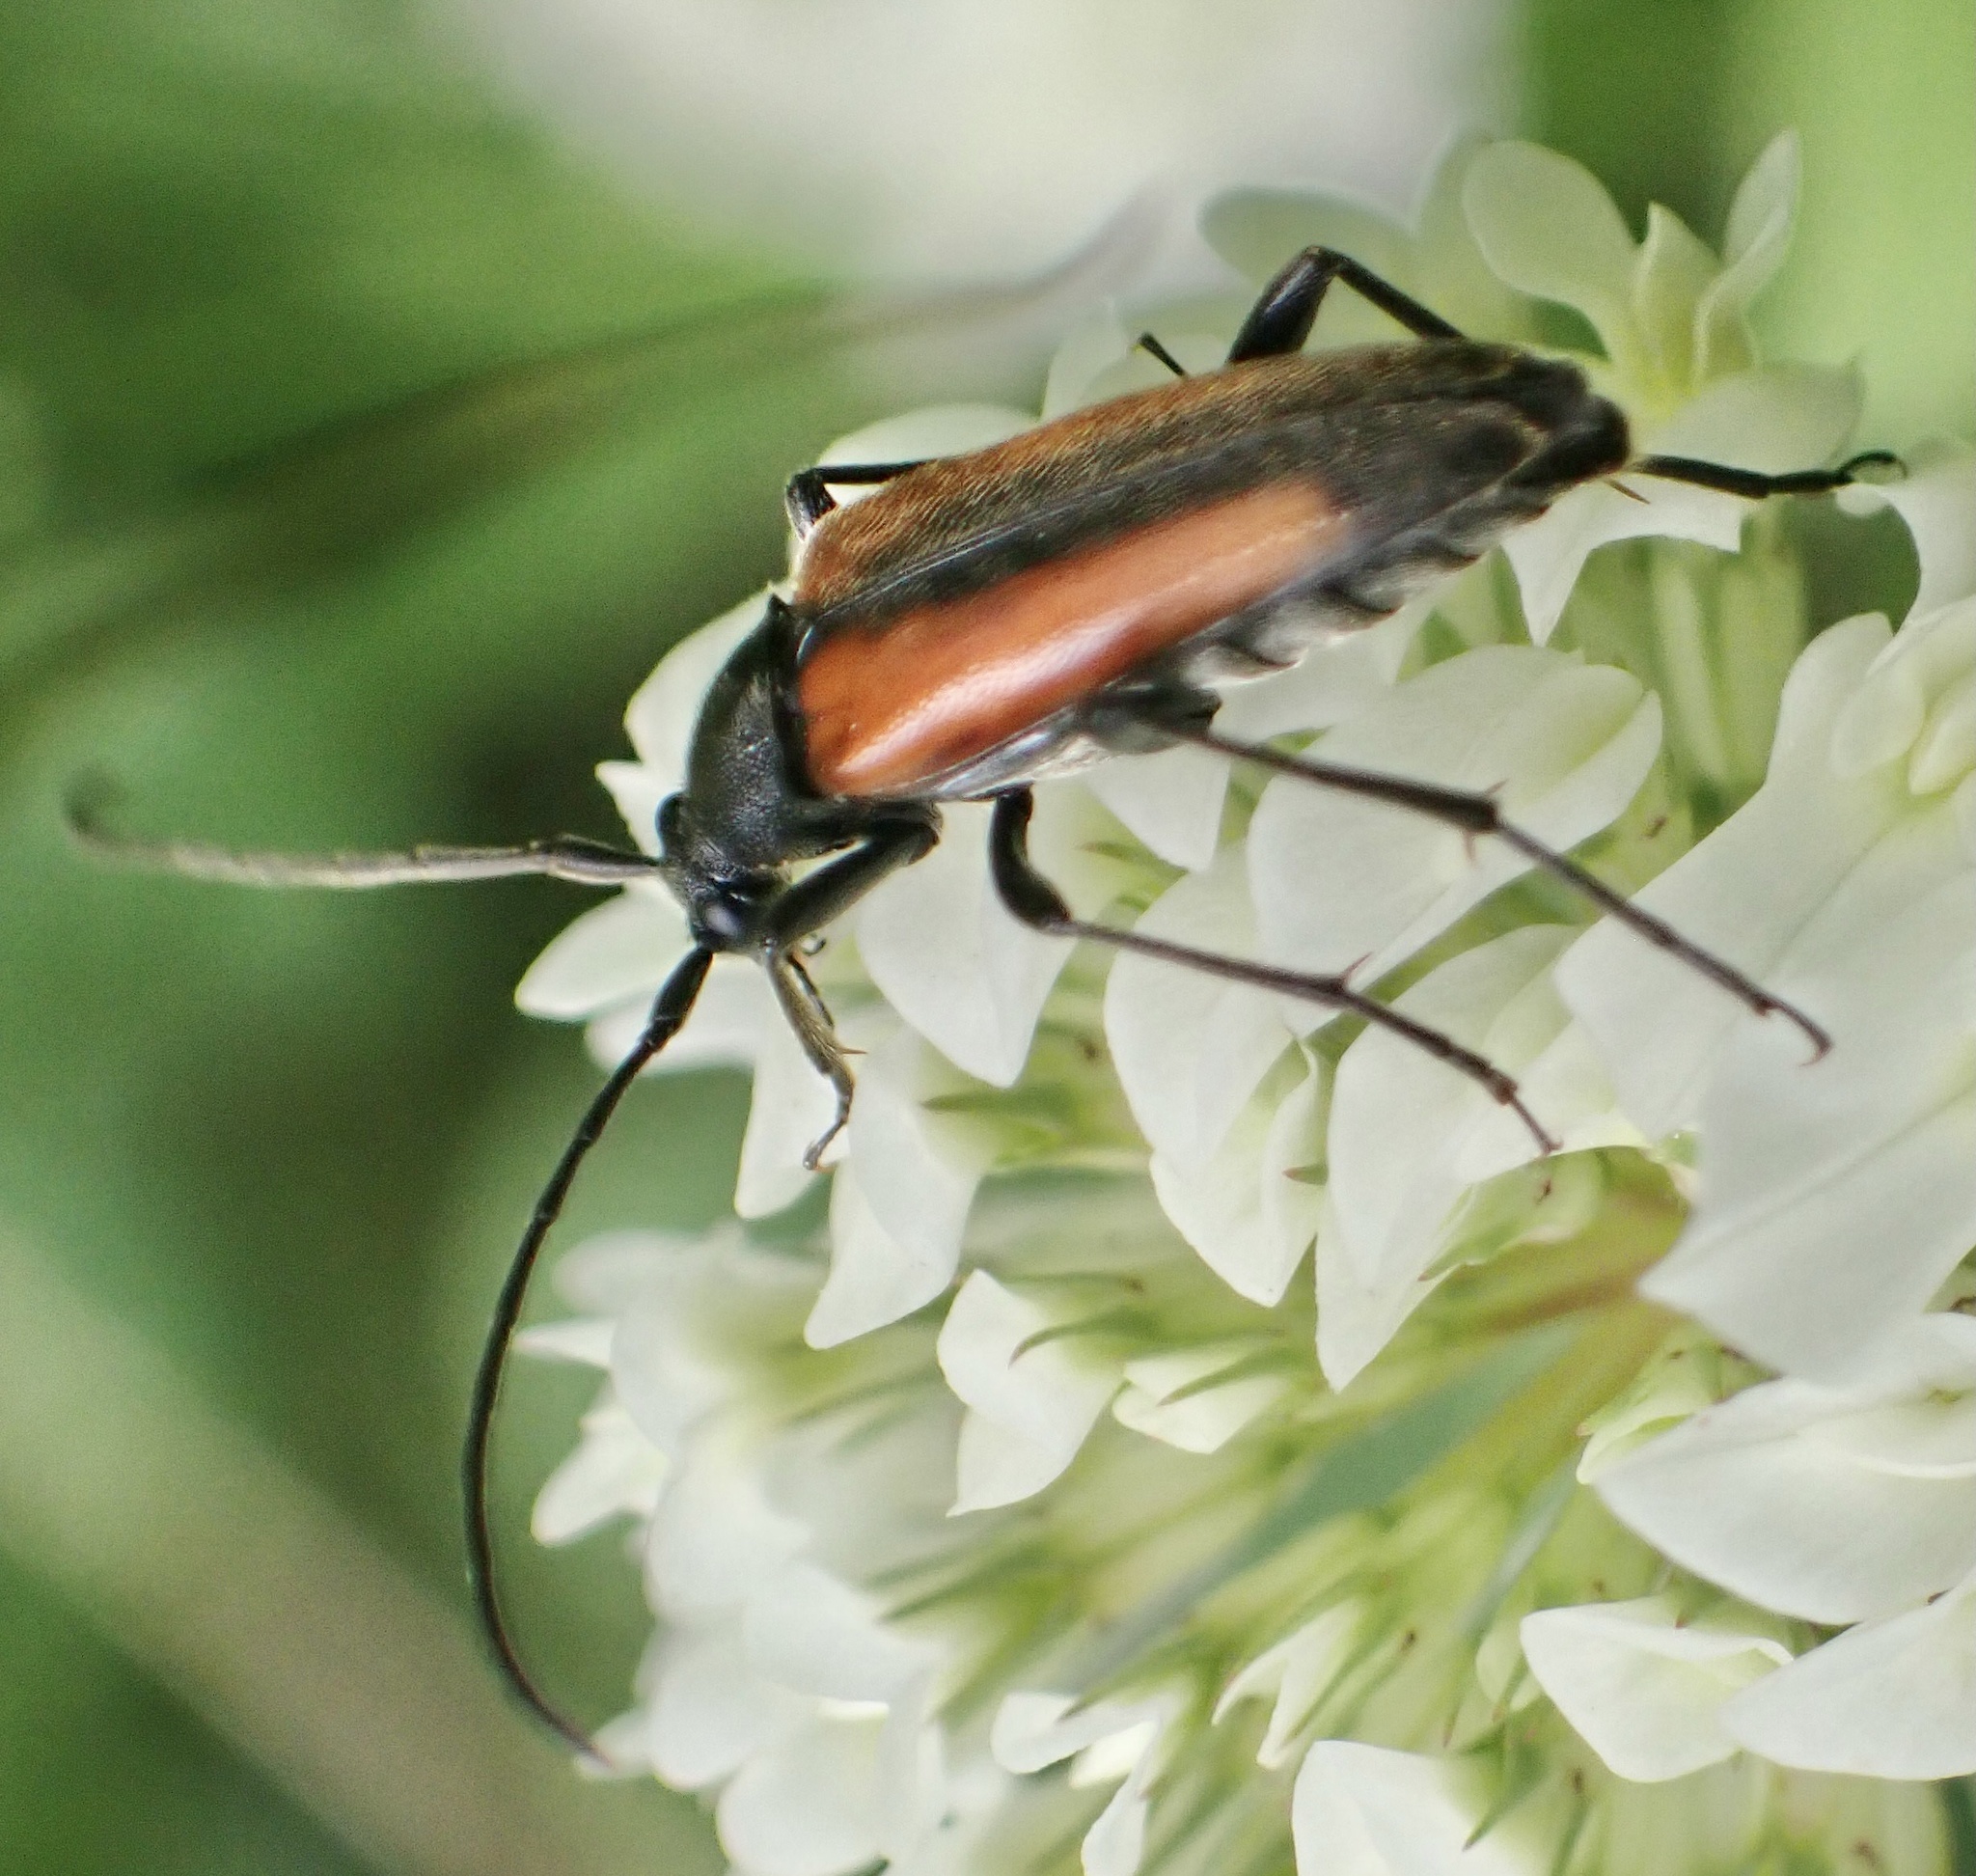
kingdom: Animalia
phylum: Arthropoda
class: Insecta
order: Coleoptera
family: Cerambycidae
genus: Stenurella
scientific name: Stenurella melanura
